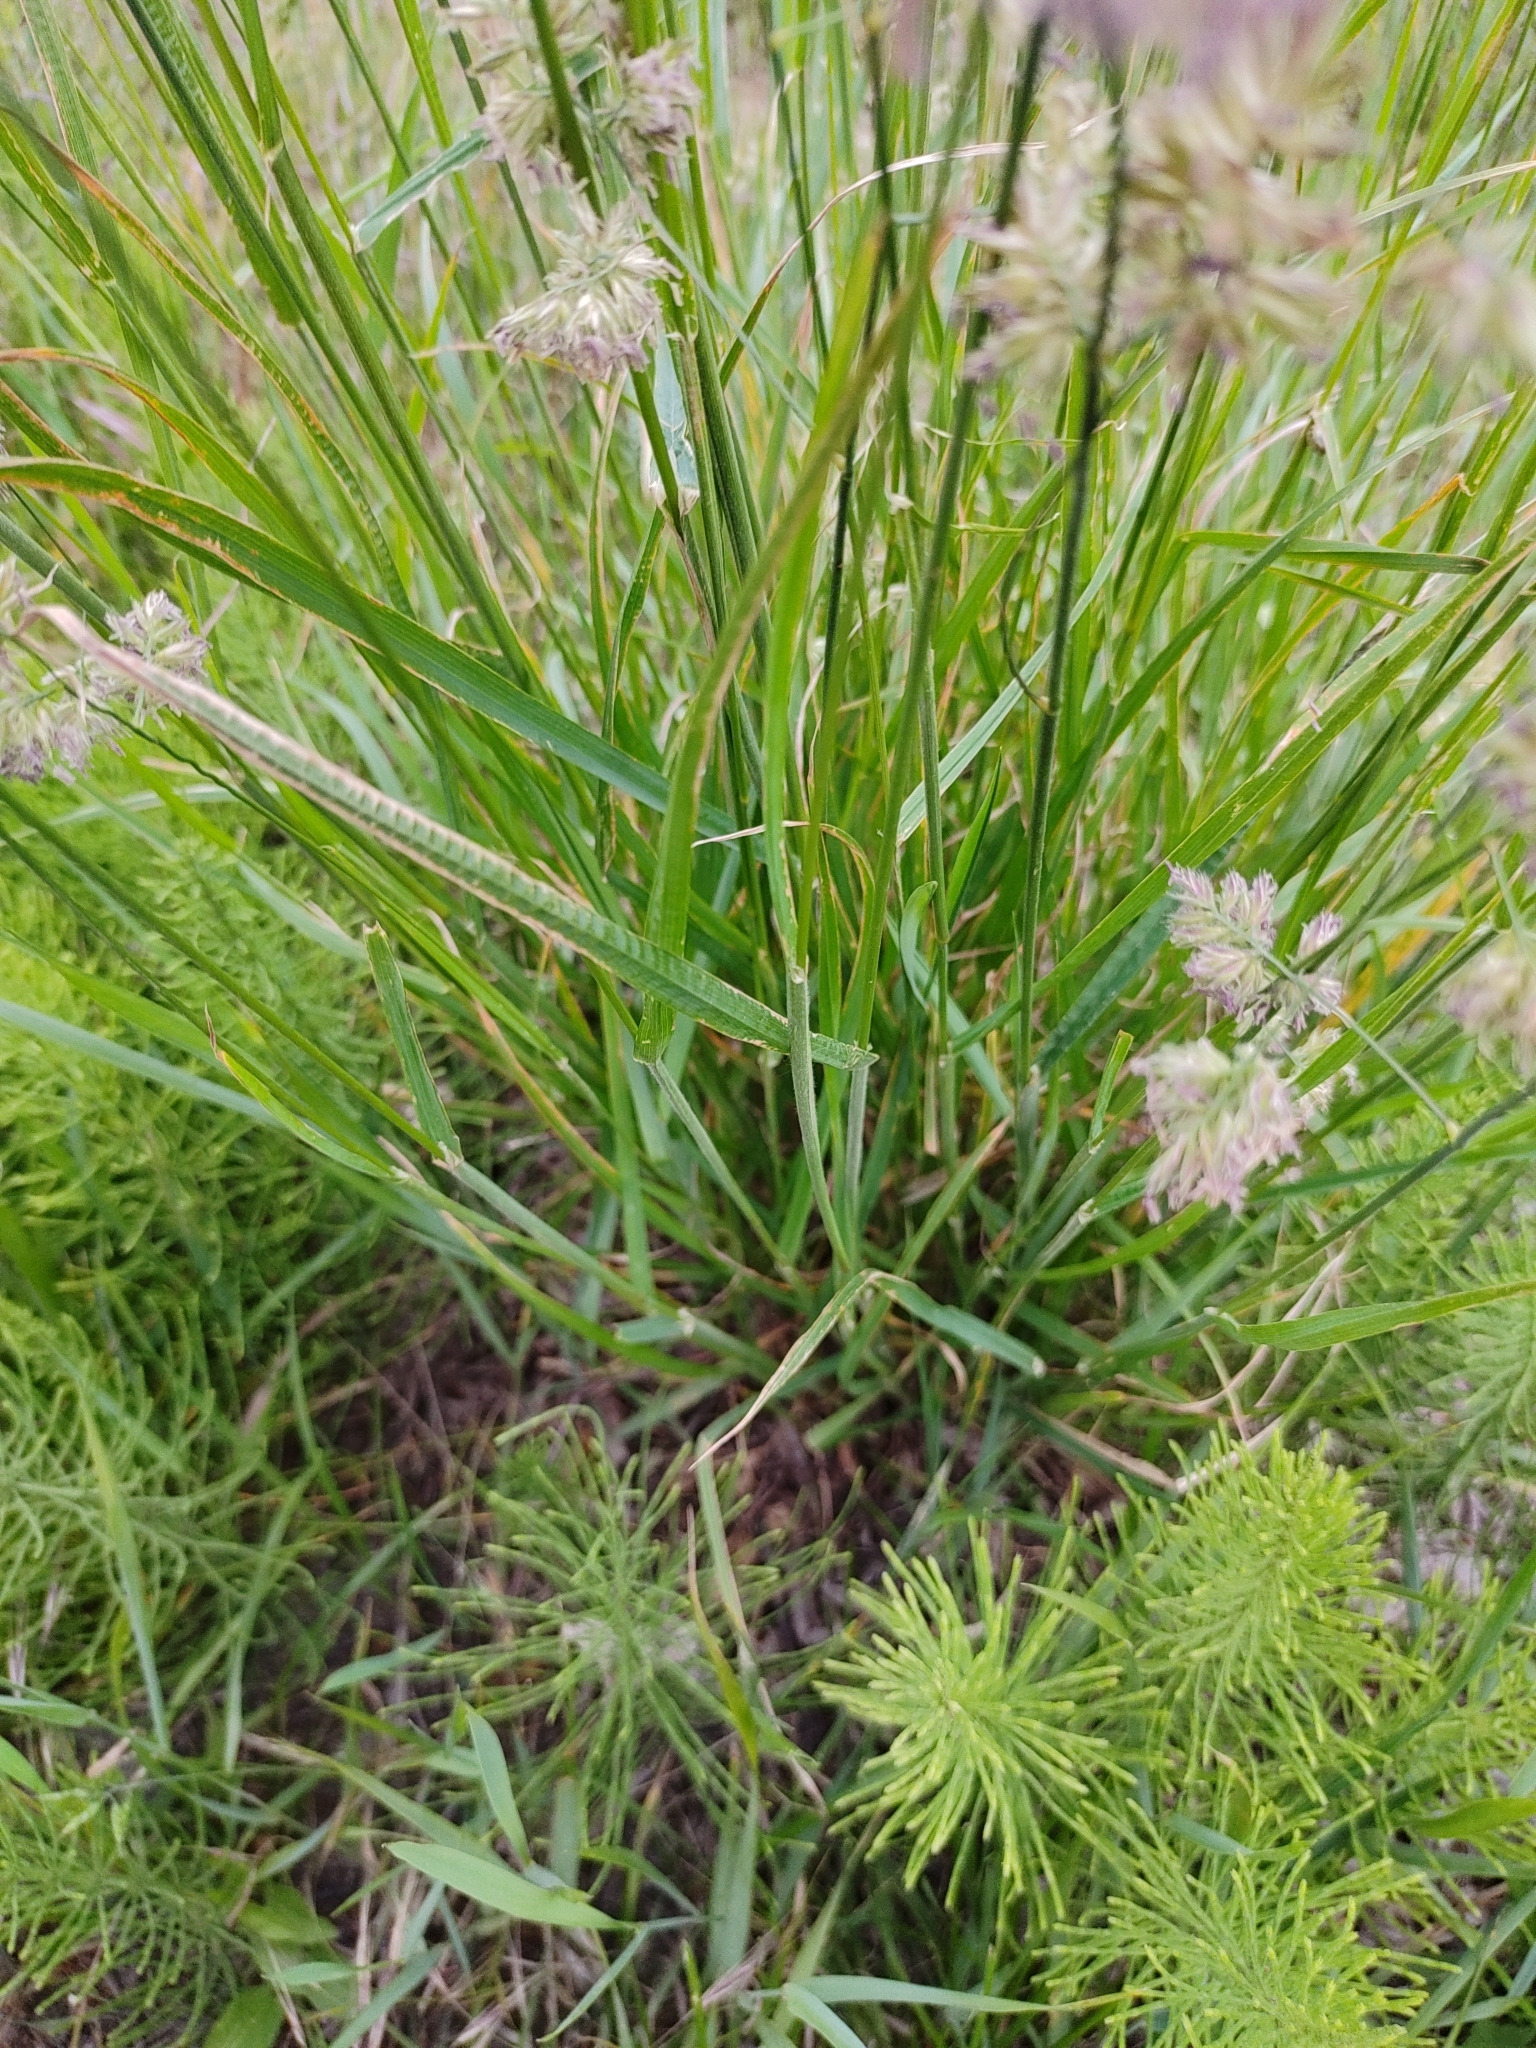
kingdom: Plantae
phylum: Tracheophyta
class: Liliopsida
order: Poales
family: Poaceae
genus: Dactylis
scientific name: Dactylis glomerata
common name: Orchardgrass
